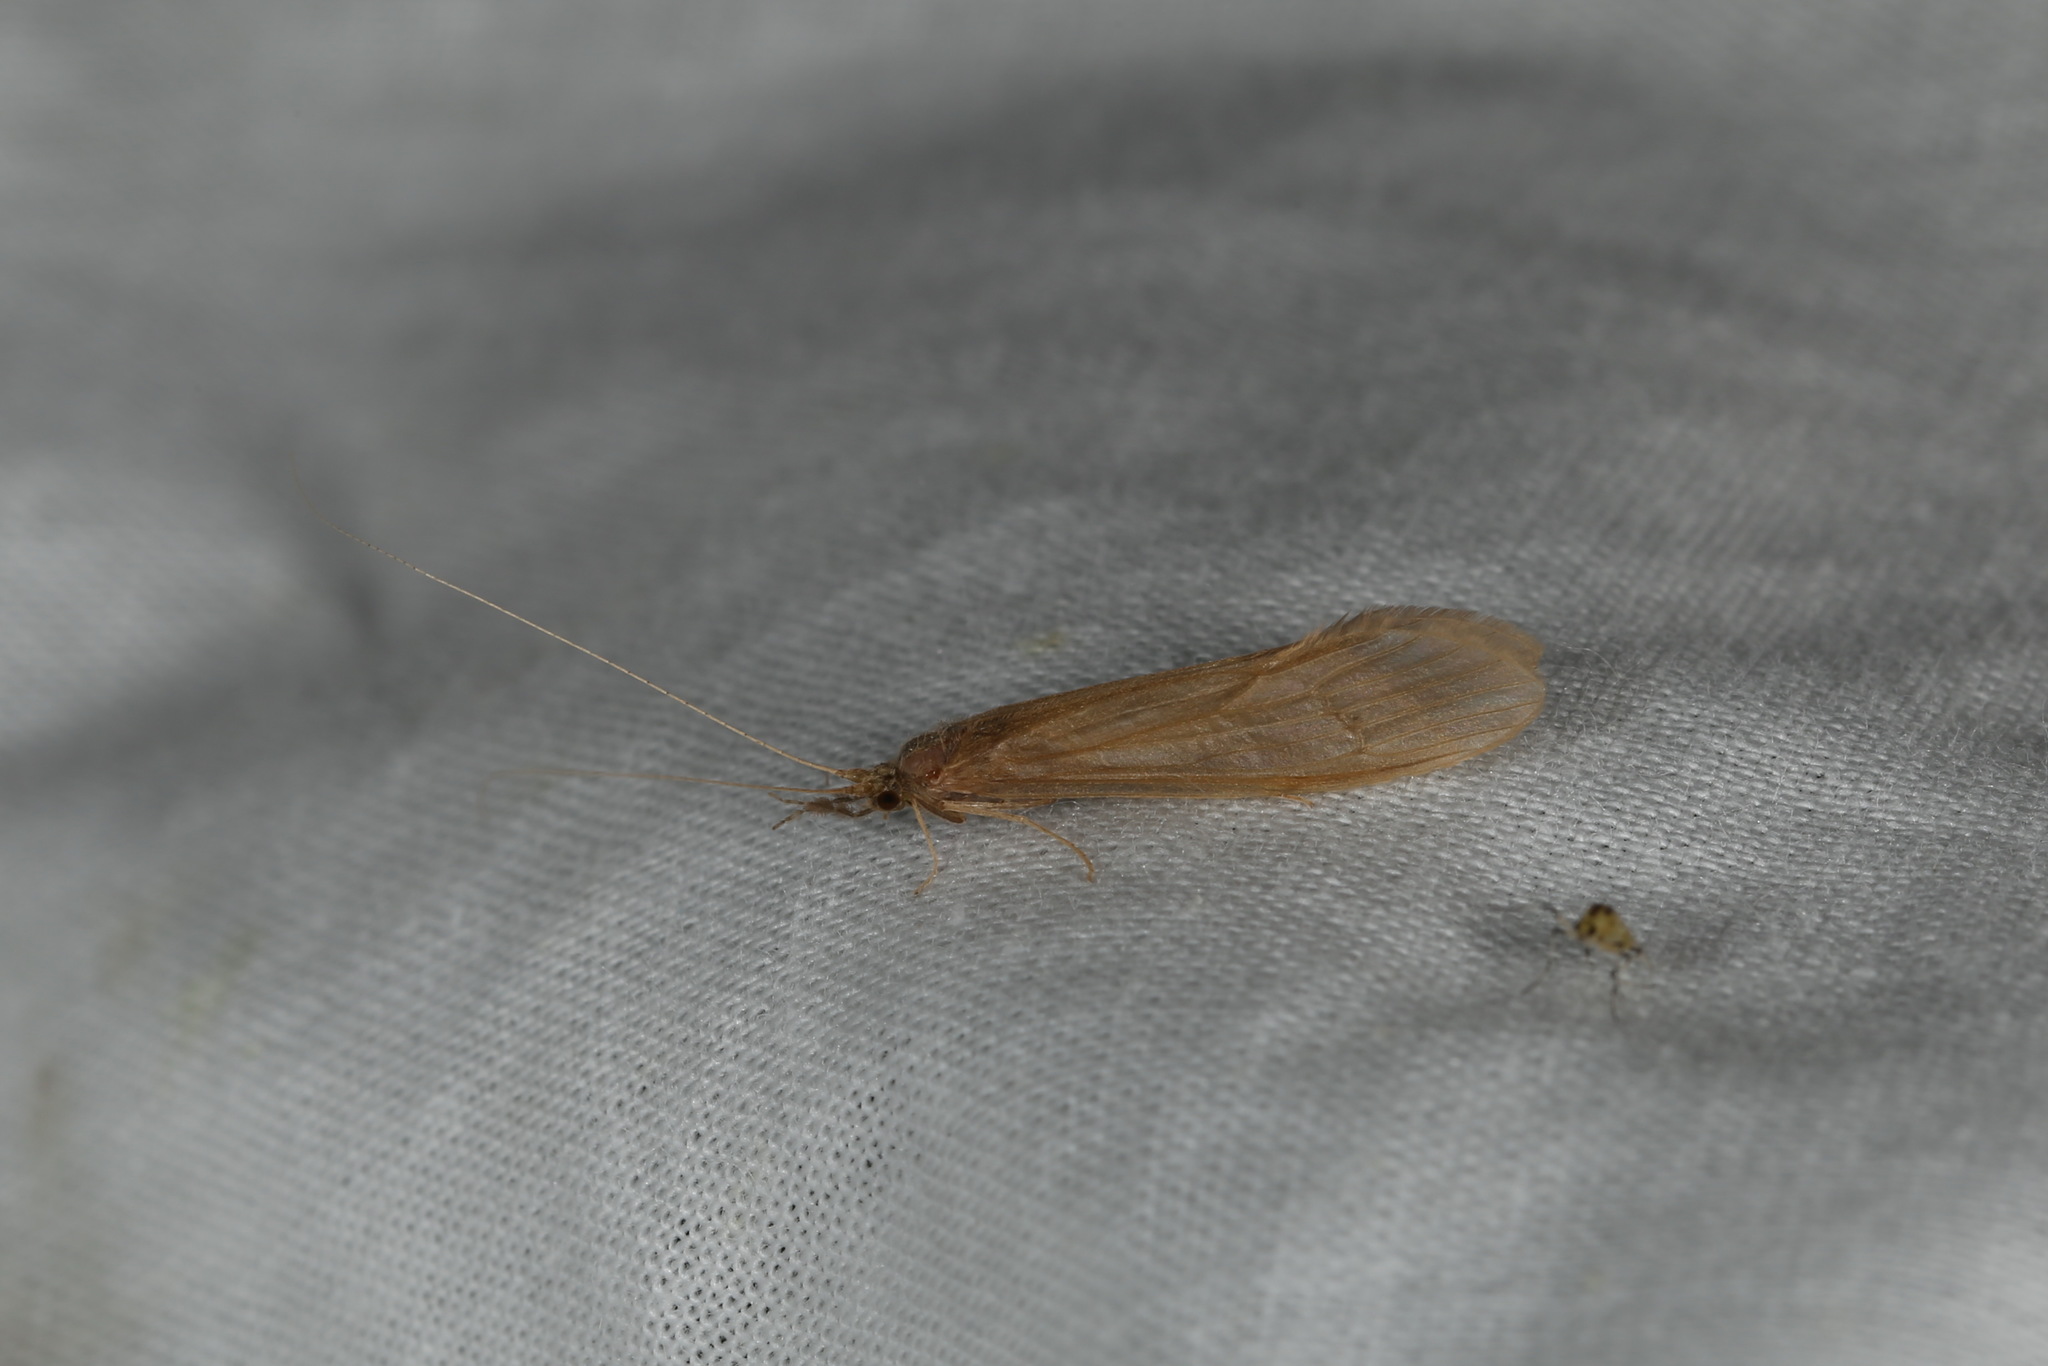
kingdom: Animalia
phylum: Arthropoda
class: Insecta
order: Trichoptera
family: Leptoceridae
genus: Oecetis
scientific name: Oecetis ochracea
